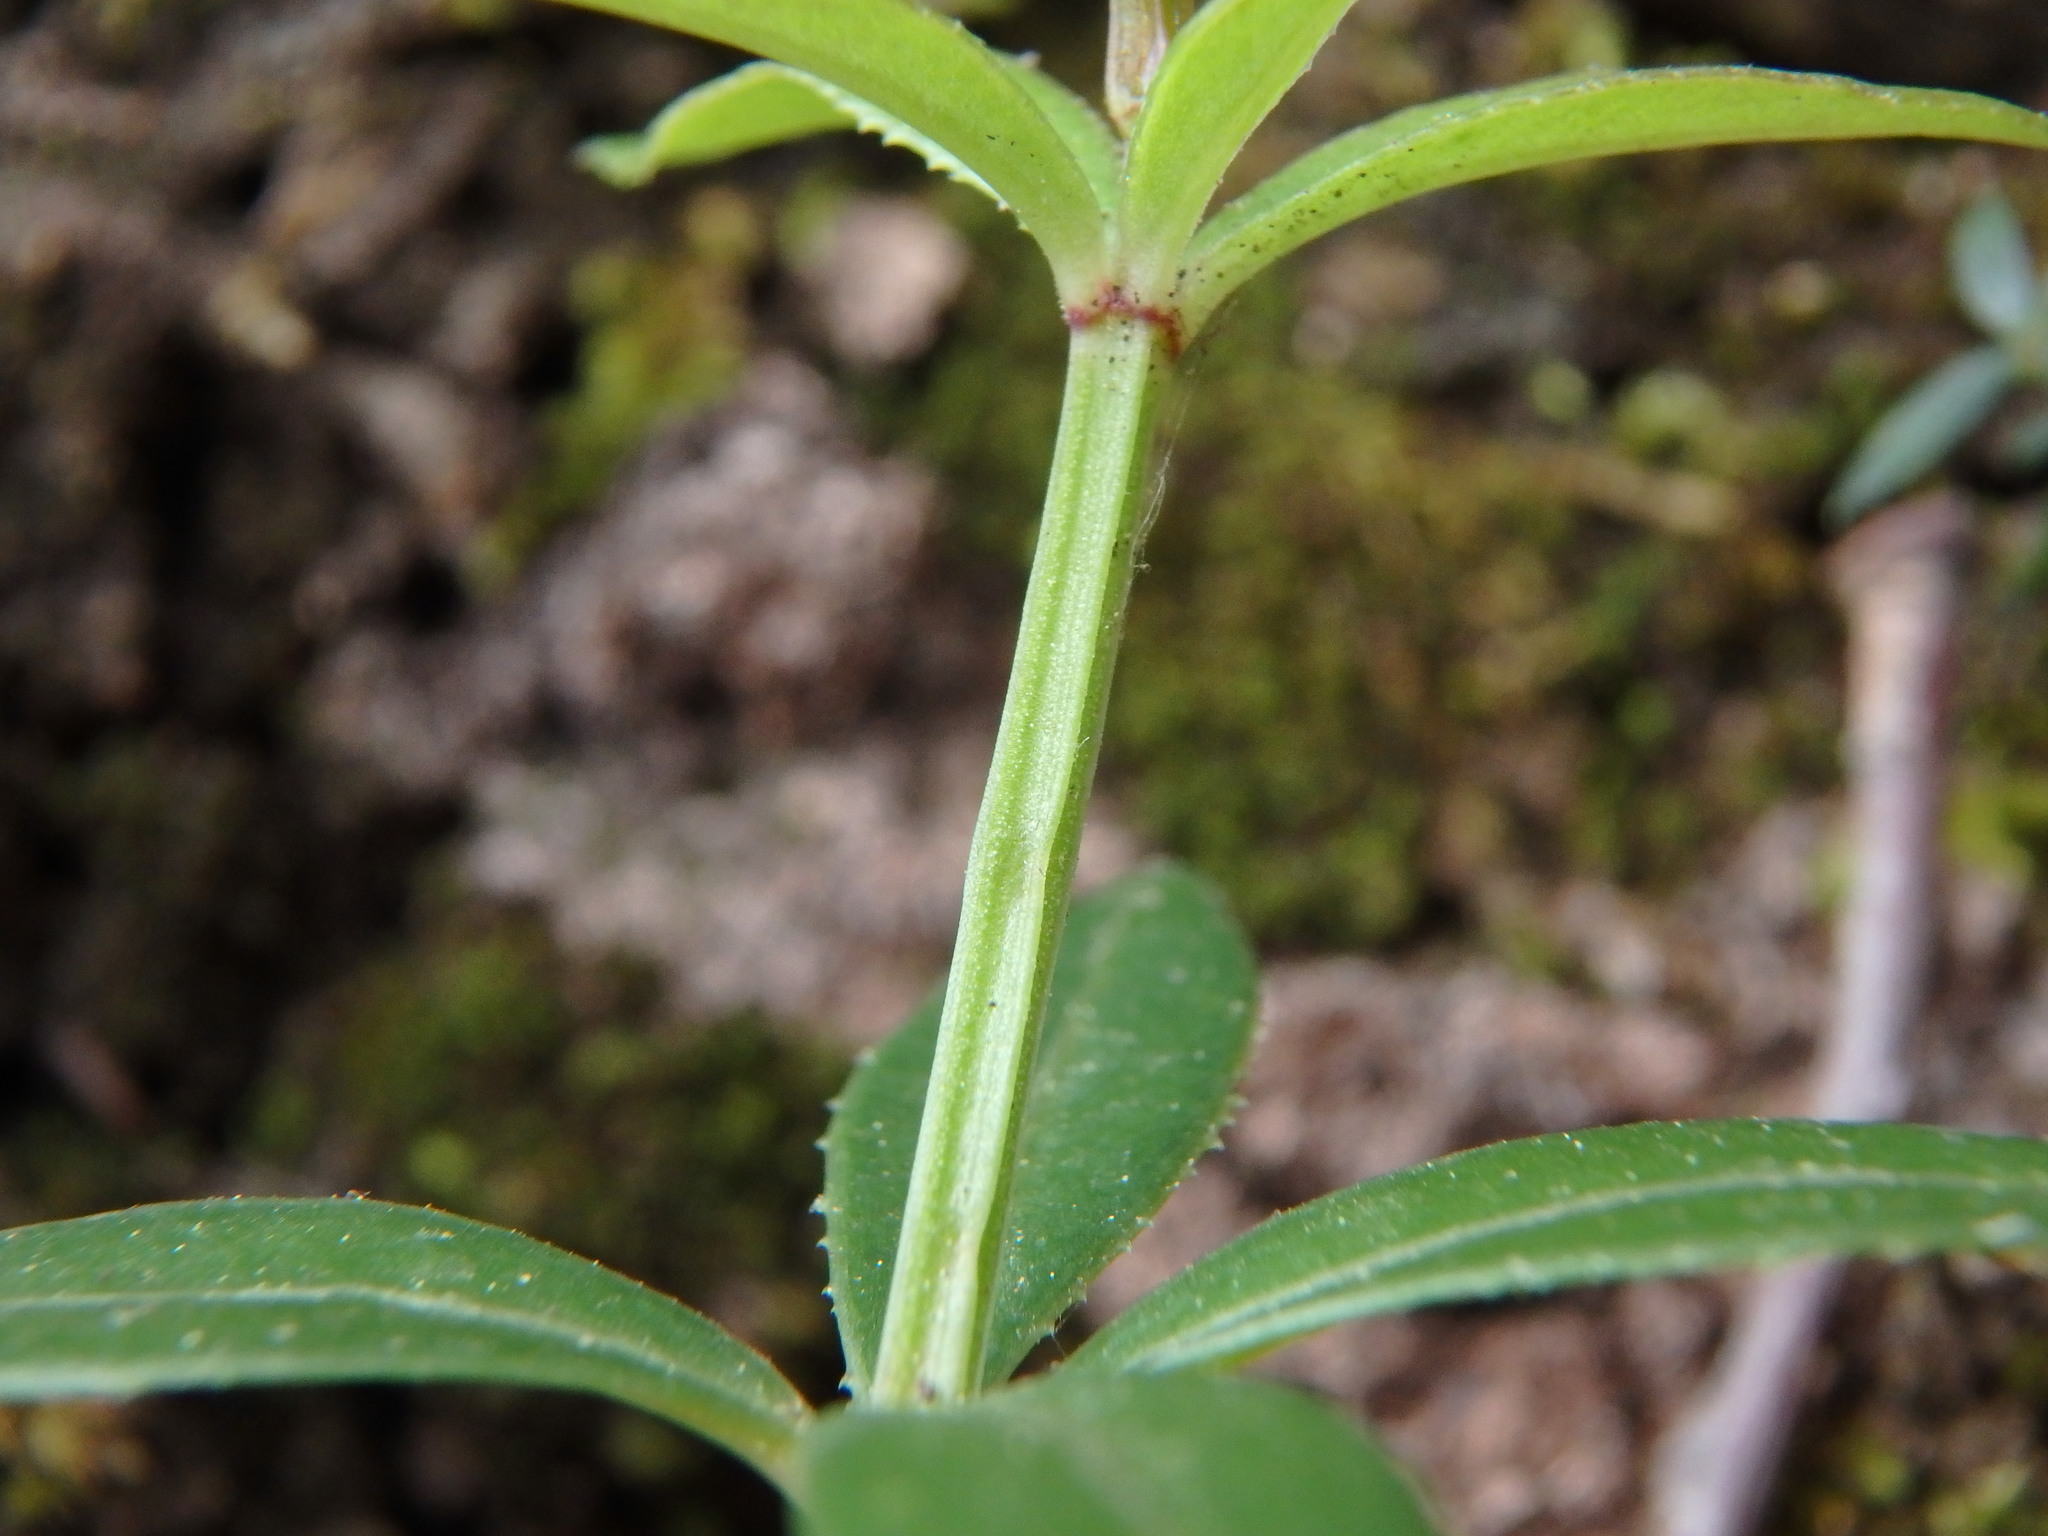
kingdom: Plantae
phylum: Tracheophyta
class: Magnoliopsida
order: Gentianales
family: Rubiaceae
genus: Rubia
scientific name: Rubia peregrina
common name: Wild madder
